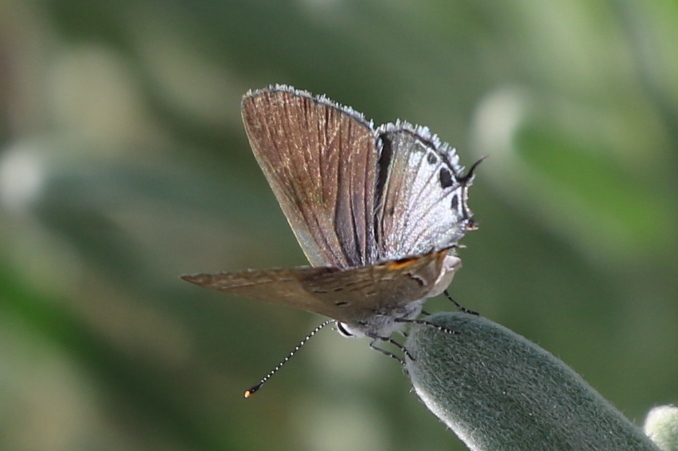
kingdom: Animalia
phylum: Arthropoda
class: Insecta
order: Lepidoptera
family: Lycaenidae
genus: Callicista
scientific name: Callicista columella
